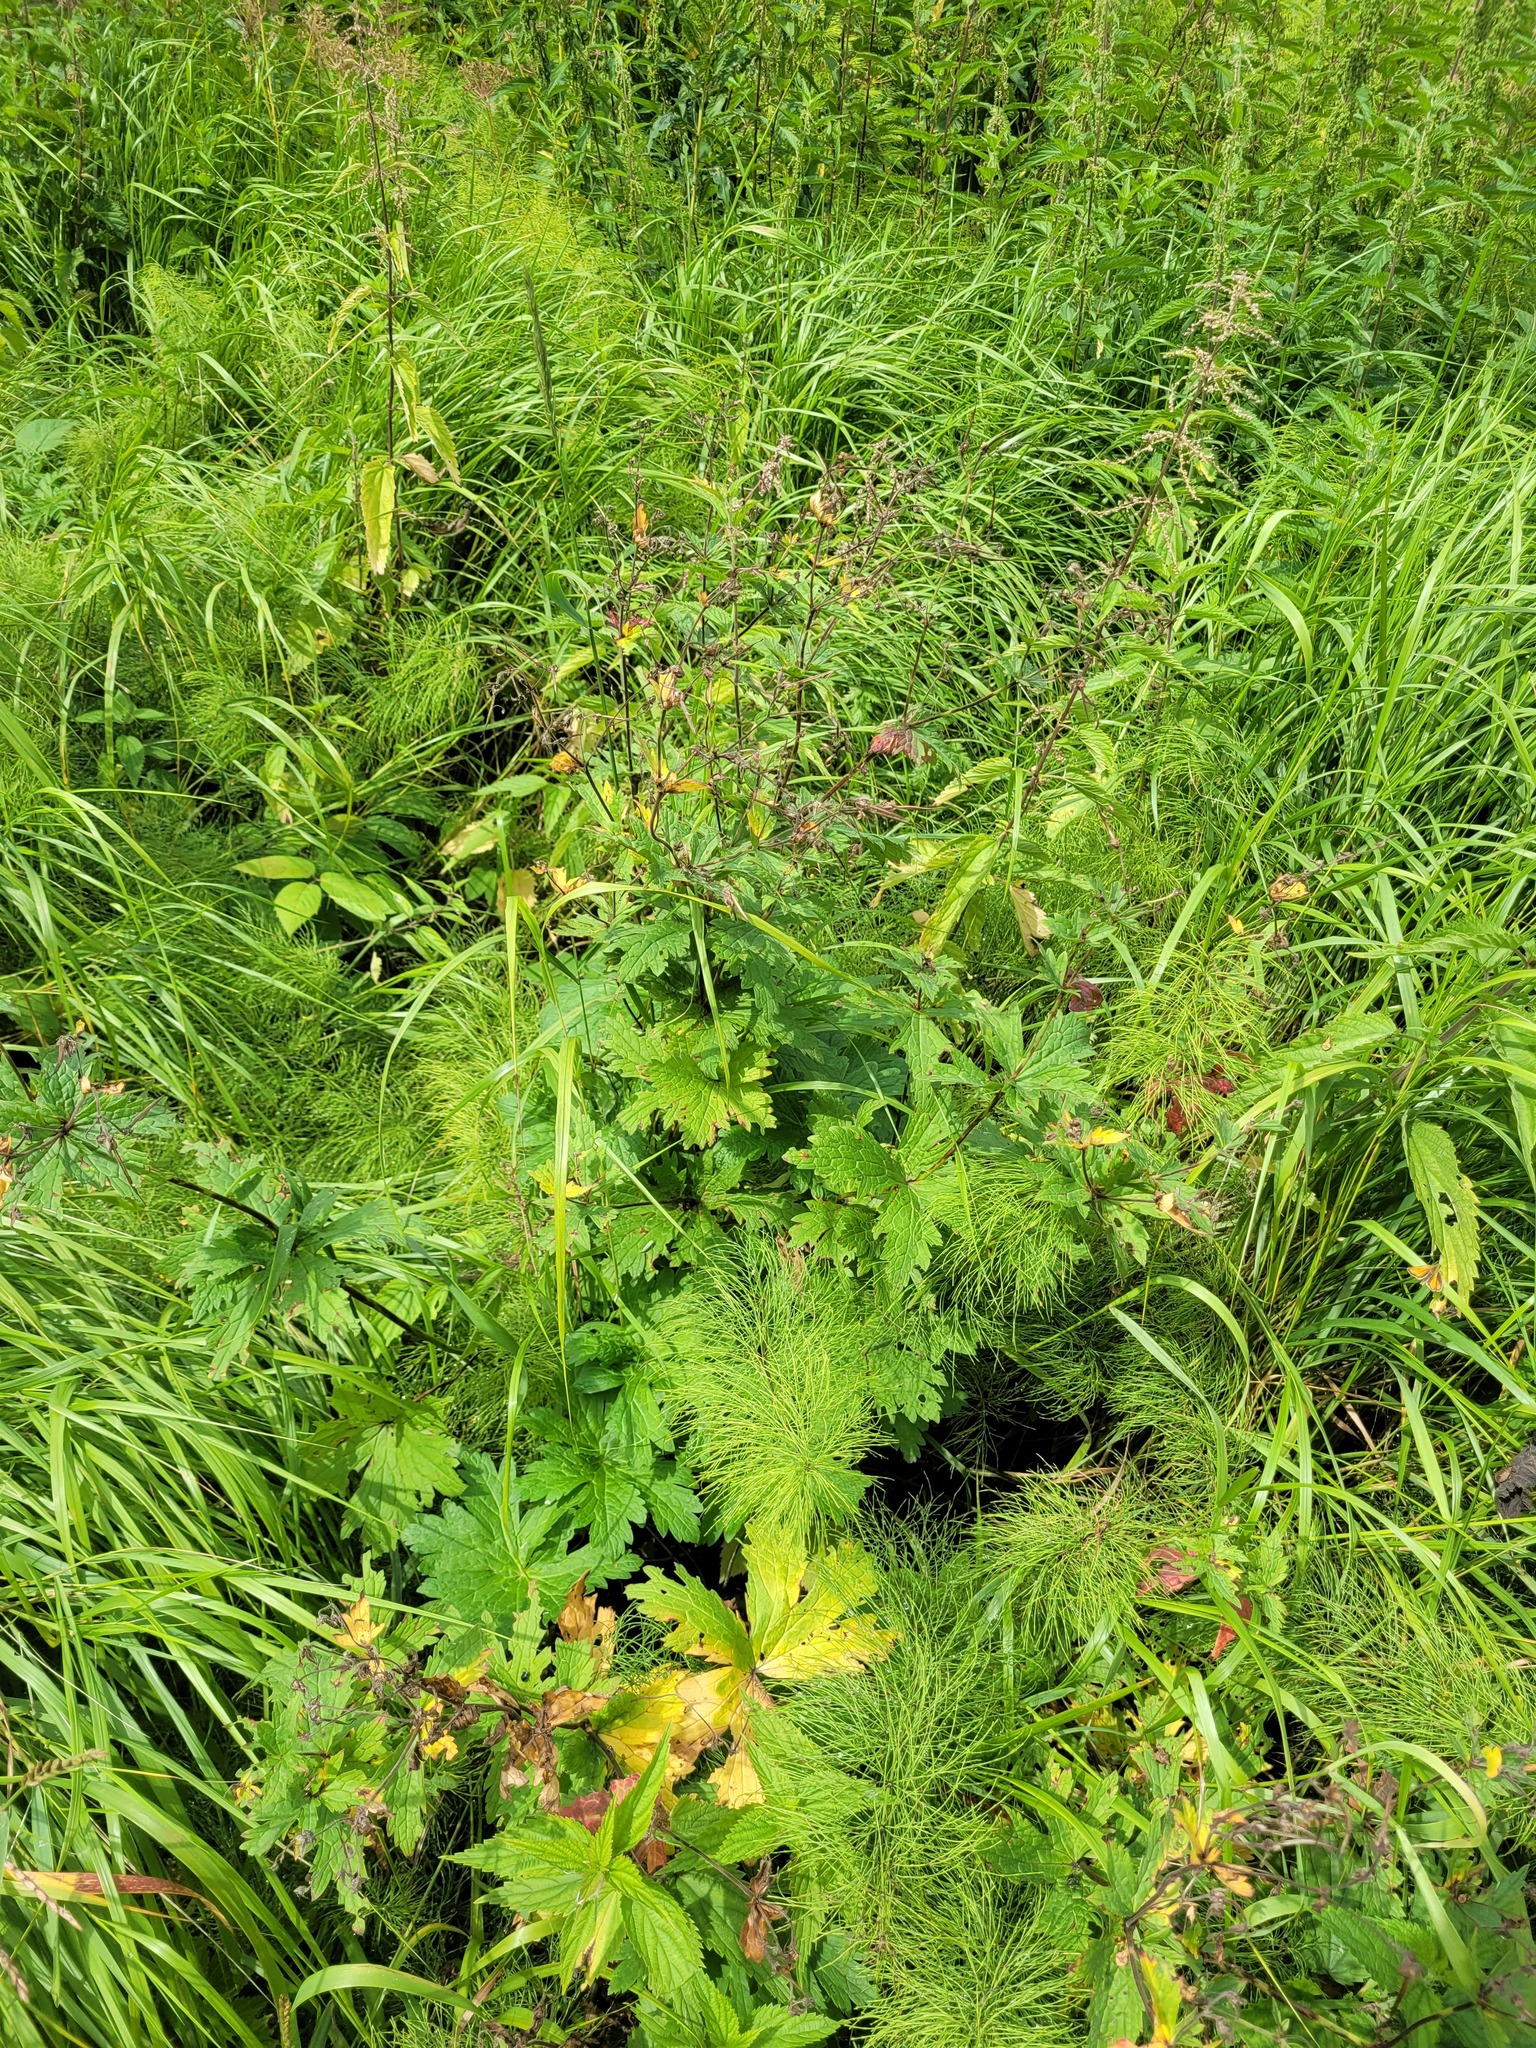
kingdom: Plantae
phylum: Tracheophyta
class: Magnoliopsida
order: Geraniales
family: Geraniaceae
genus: Geranium
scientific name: Geranium sylvaticum
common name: Wood crane's-bill
